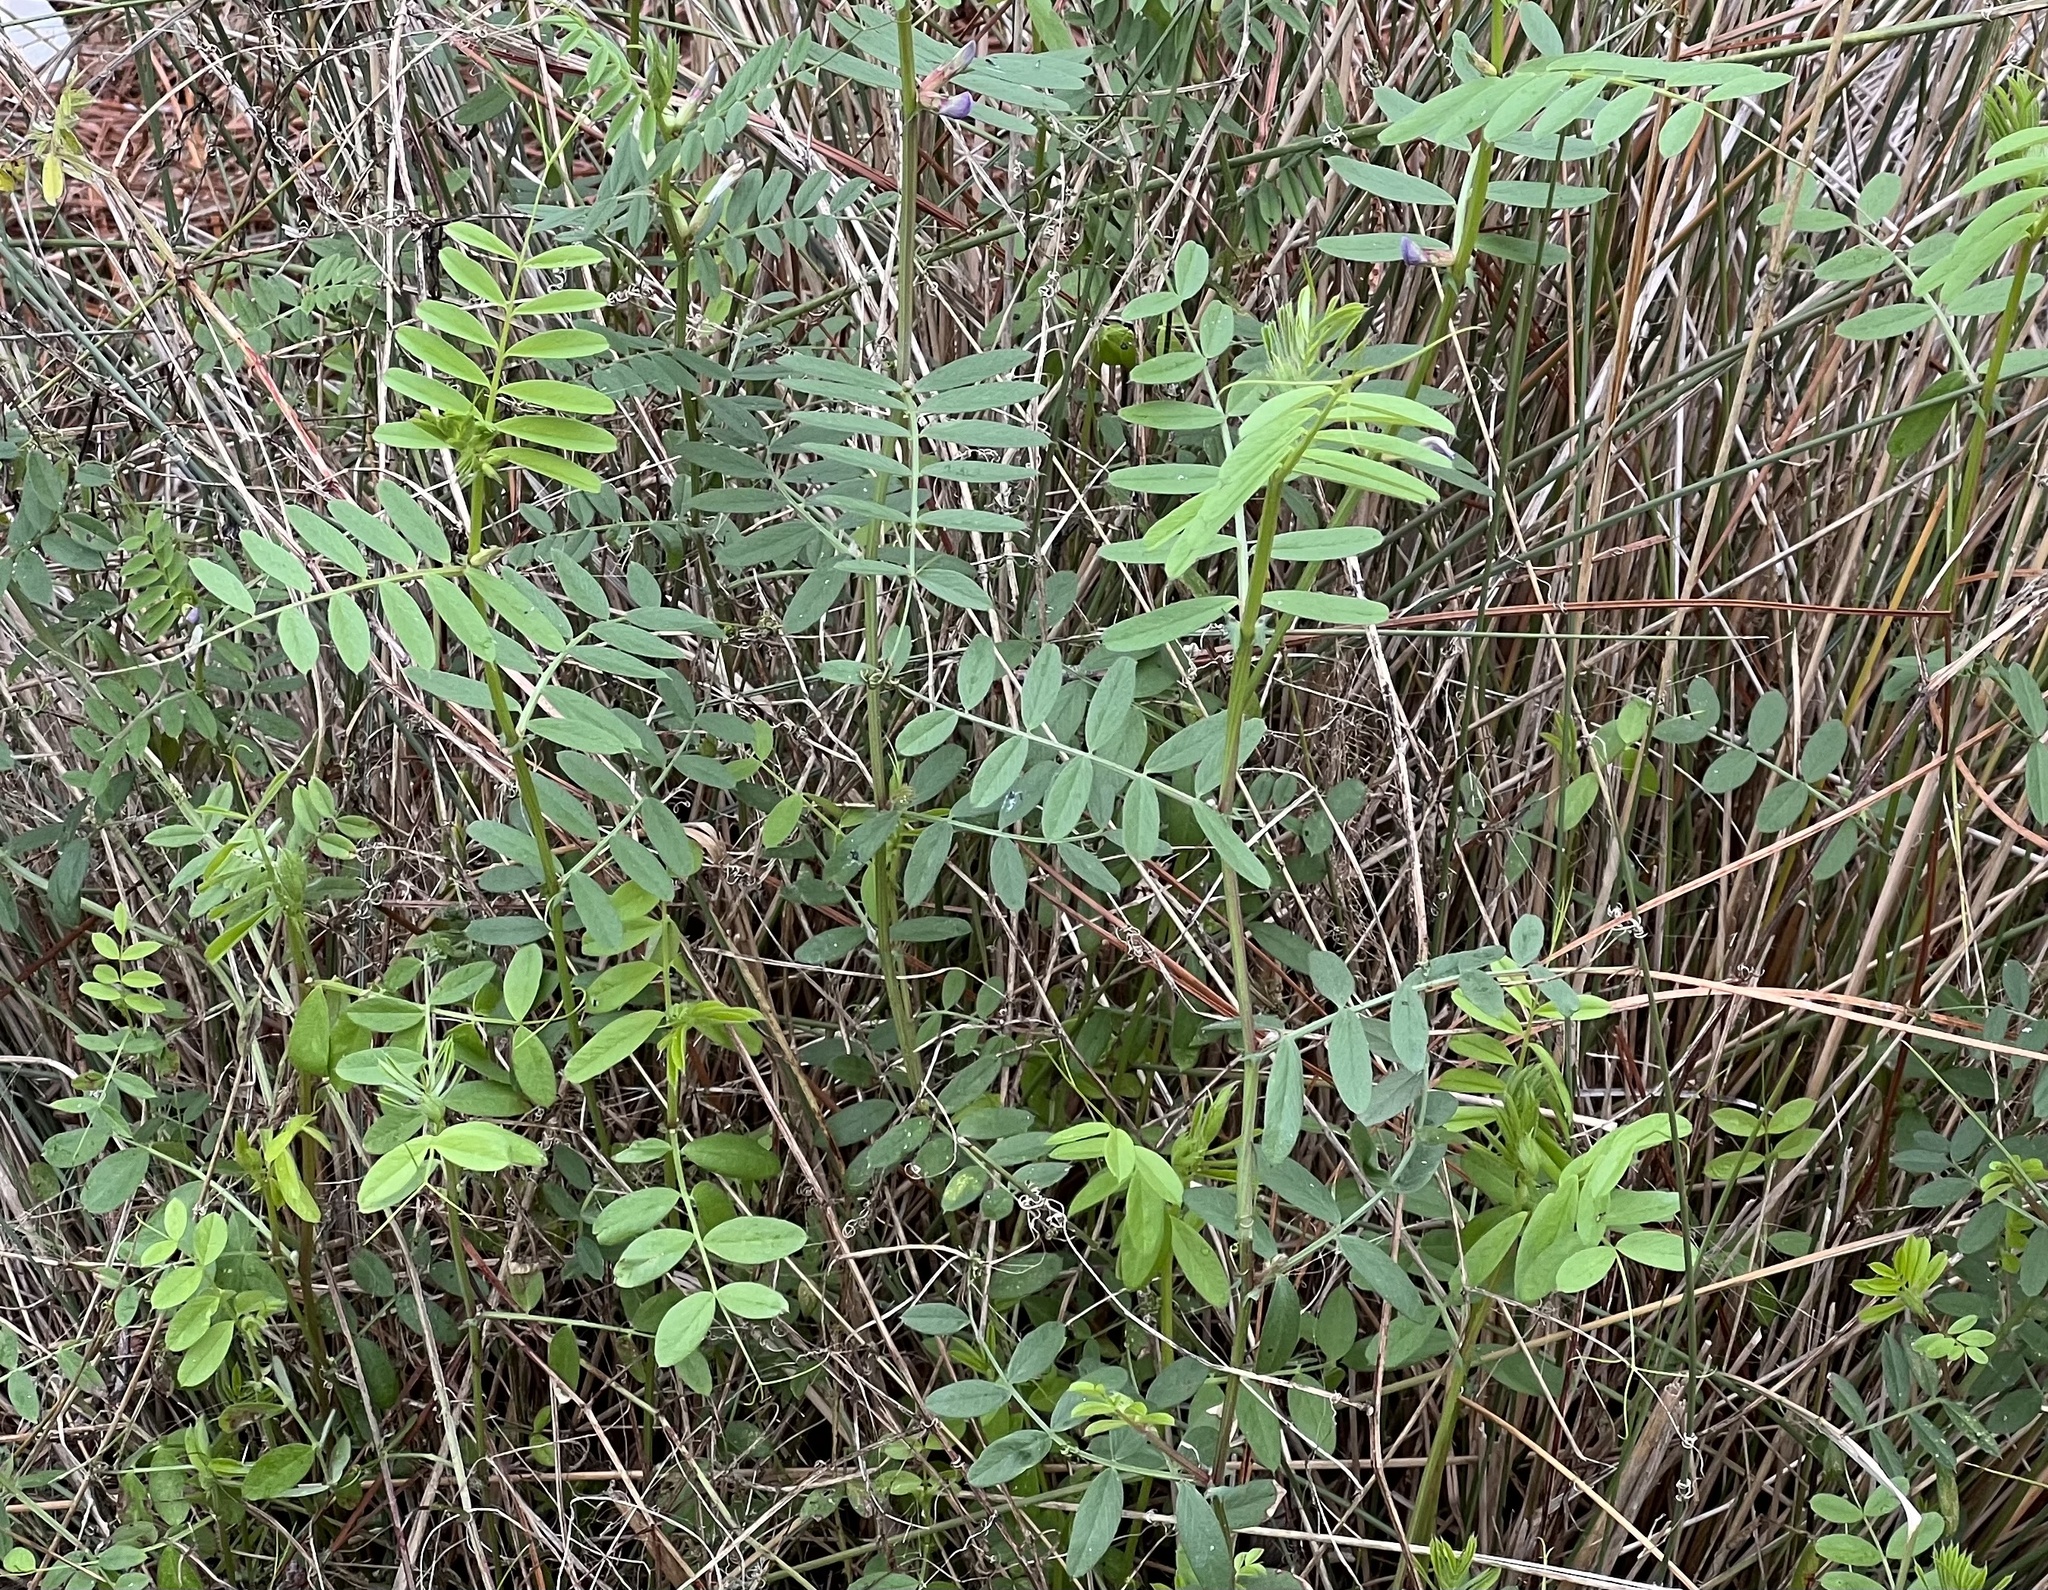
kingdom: Plantae
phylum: Tracheophyta
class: Magnoliopsida
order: Fabales
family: Fabaceae
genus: Vicia
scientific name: Vicia sativa
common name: Garden vetch
